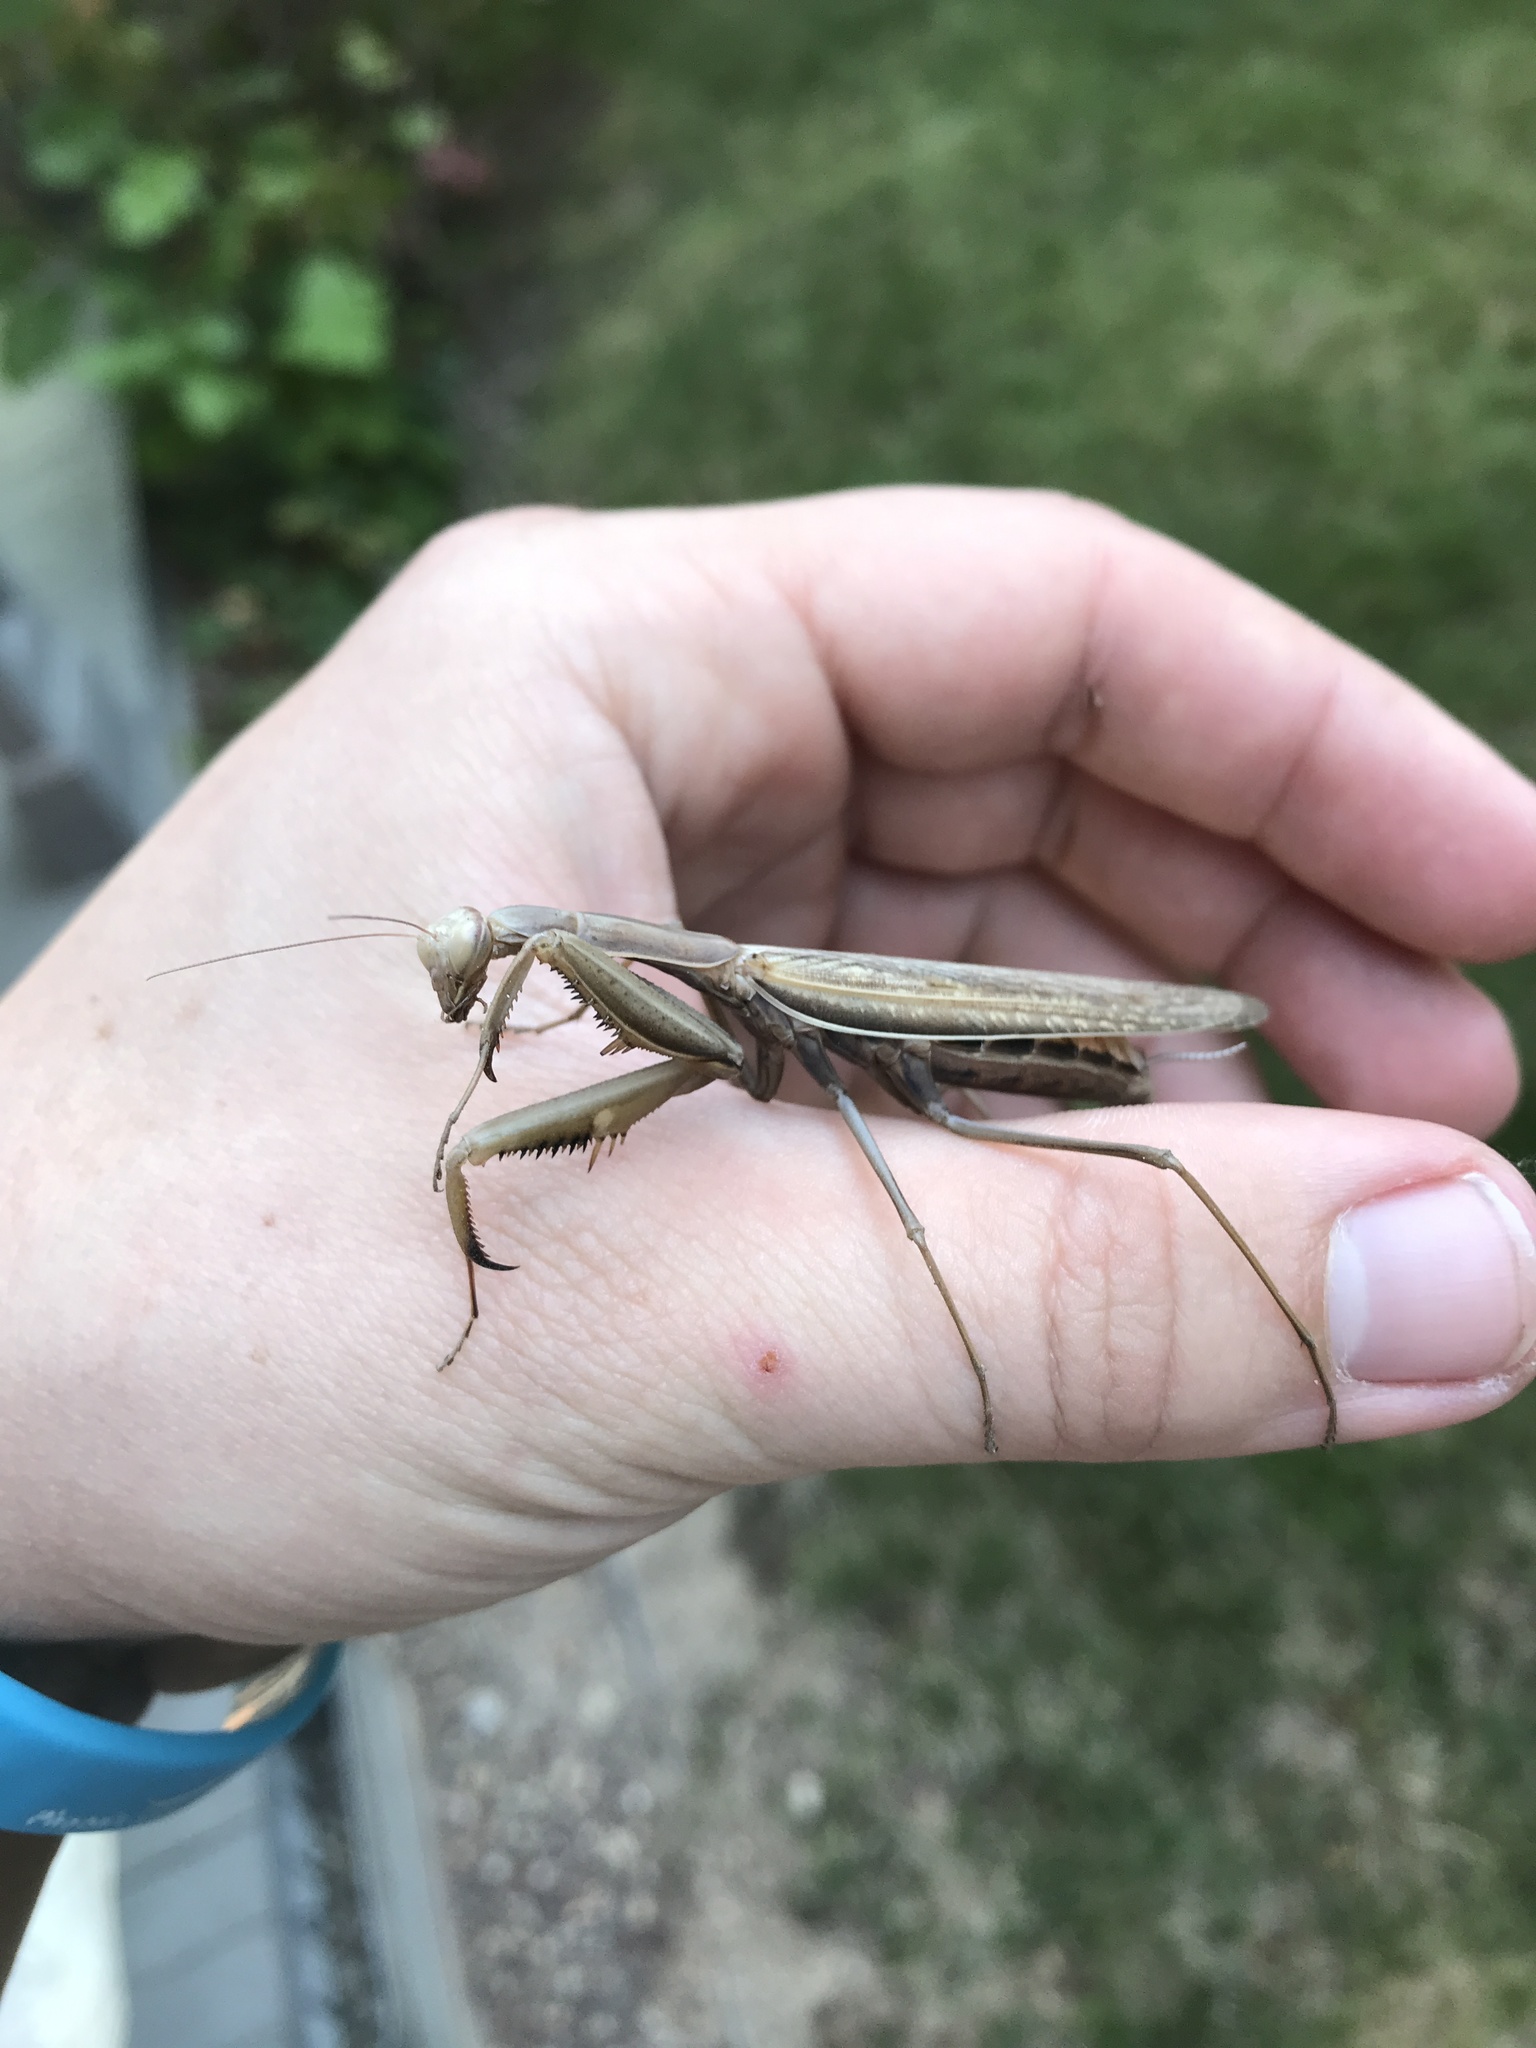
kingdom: Animalia
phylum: Arthropoda
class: Insecta
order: Mantodea
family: Mantidae
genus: Mantis
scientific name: Mantis religiosa
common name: Praying mantis
